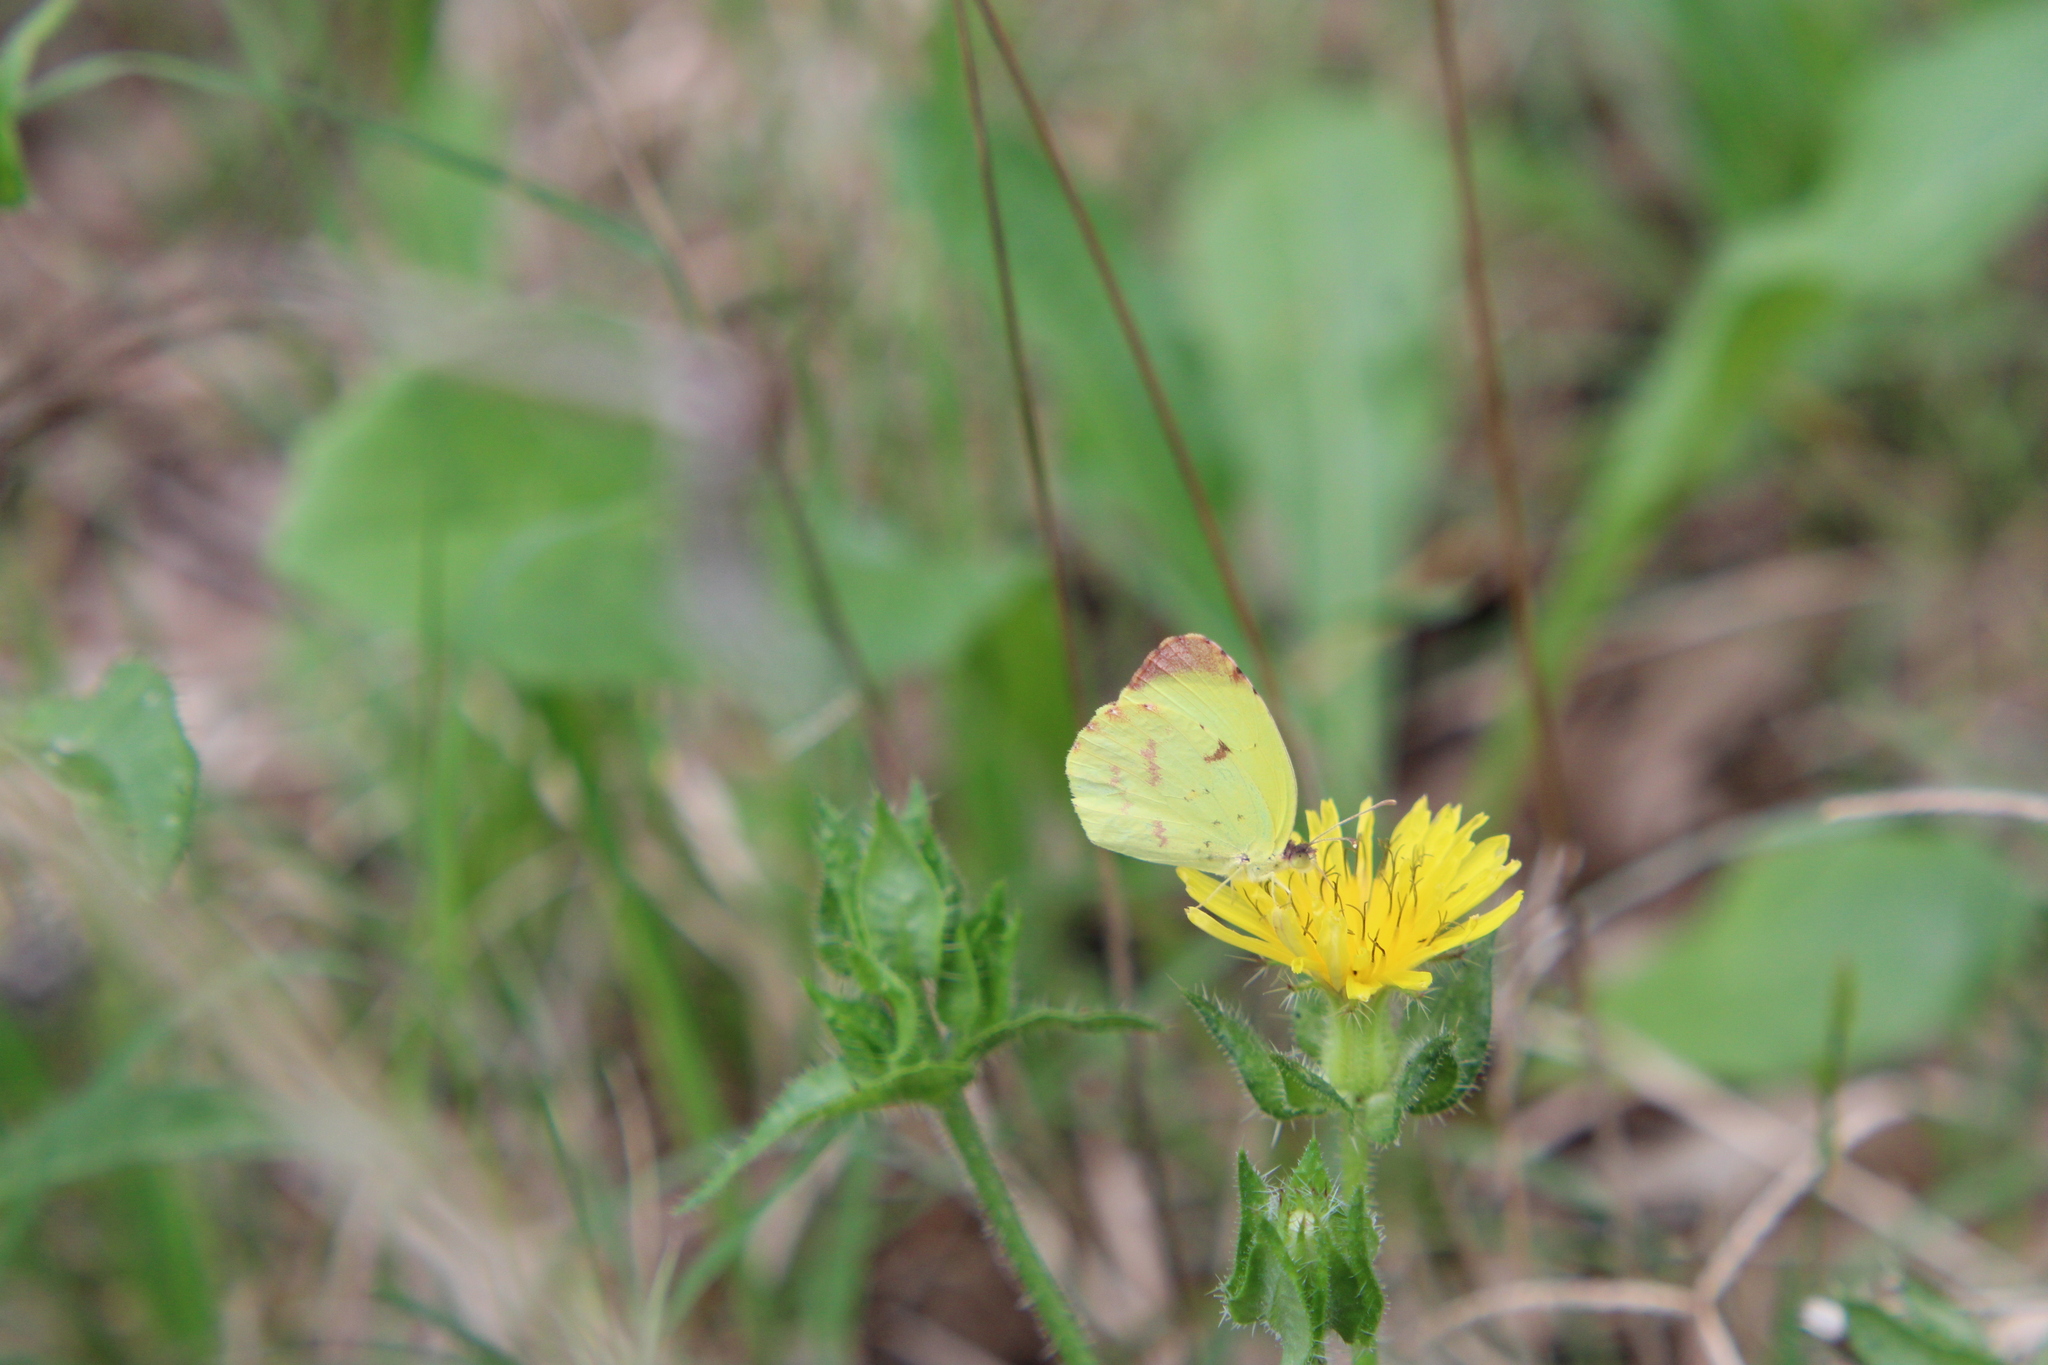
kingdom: Animalia
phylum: Arthropoda
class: Insecta
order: Lepidoptera
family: Pieridae
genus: Teriocolias
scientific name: Teriocolias
